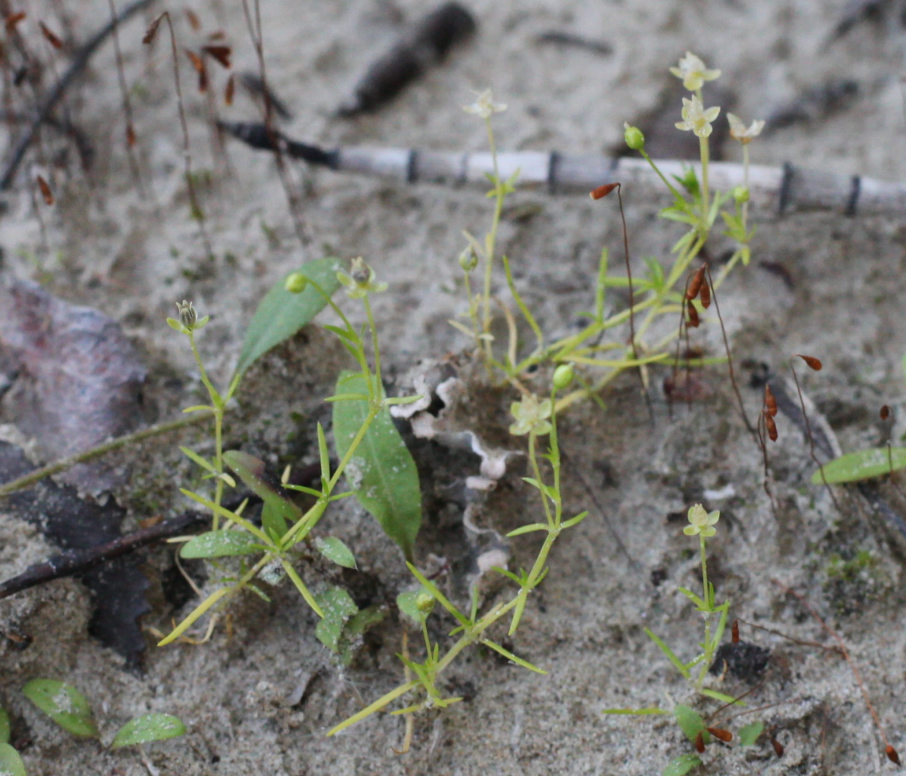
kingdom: Plantae
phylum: Tracheophyta
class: Magnoliopsida
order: Caryophyllales
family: Caryophyllaceae
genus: Sagina
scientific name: Sagina procumbens
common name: Procumbent pearlwort
